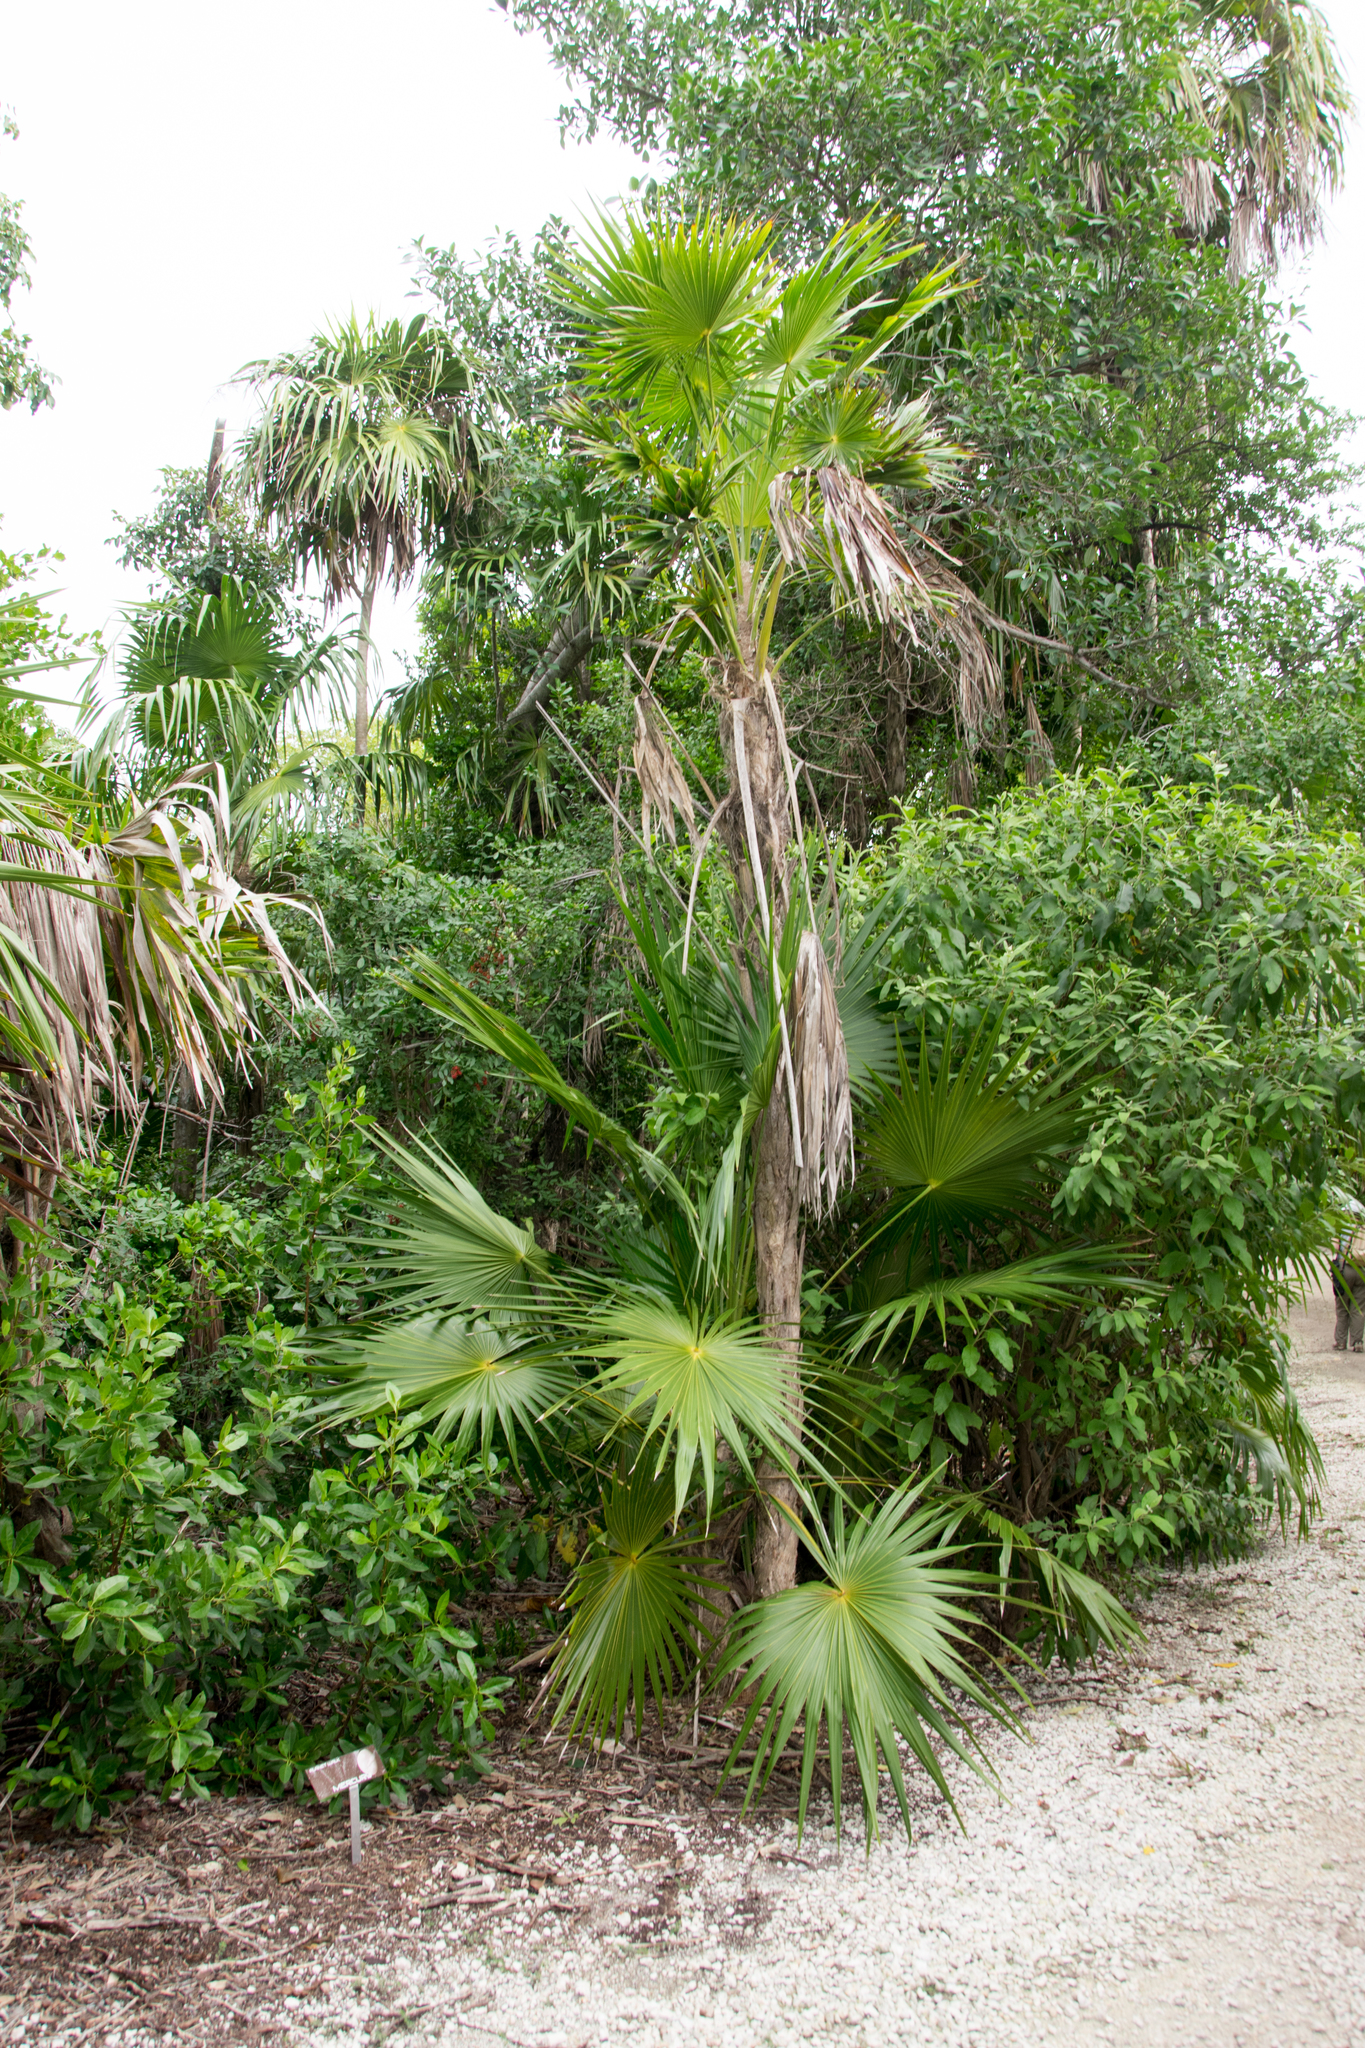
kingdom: Plantae
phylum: Tracheophyta
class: Liliopsida
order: Arecales
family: Arecaceae
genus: Thrinax
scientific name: Thrinax radiata
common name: Florida thatch
